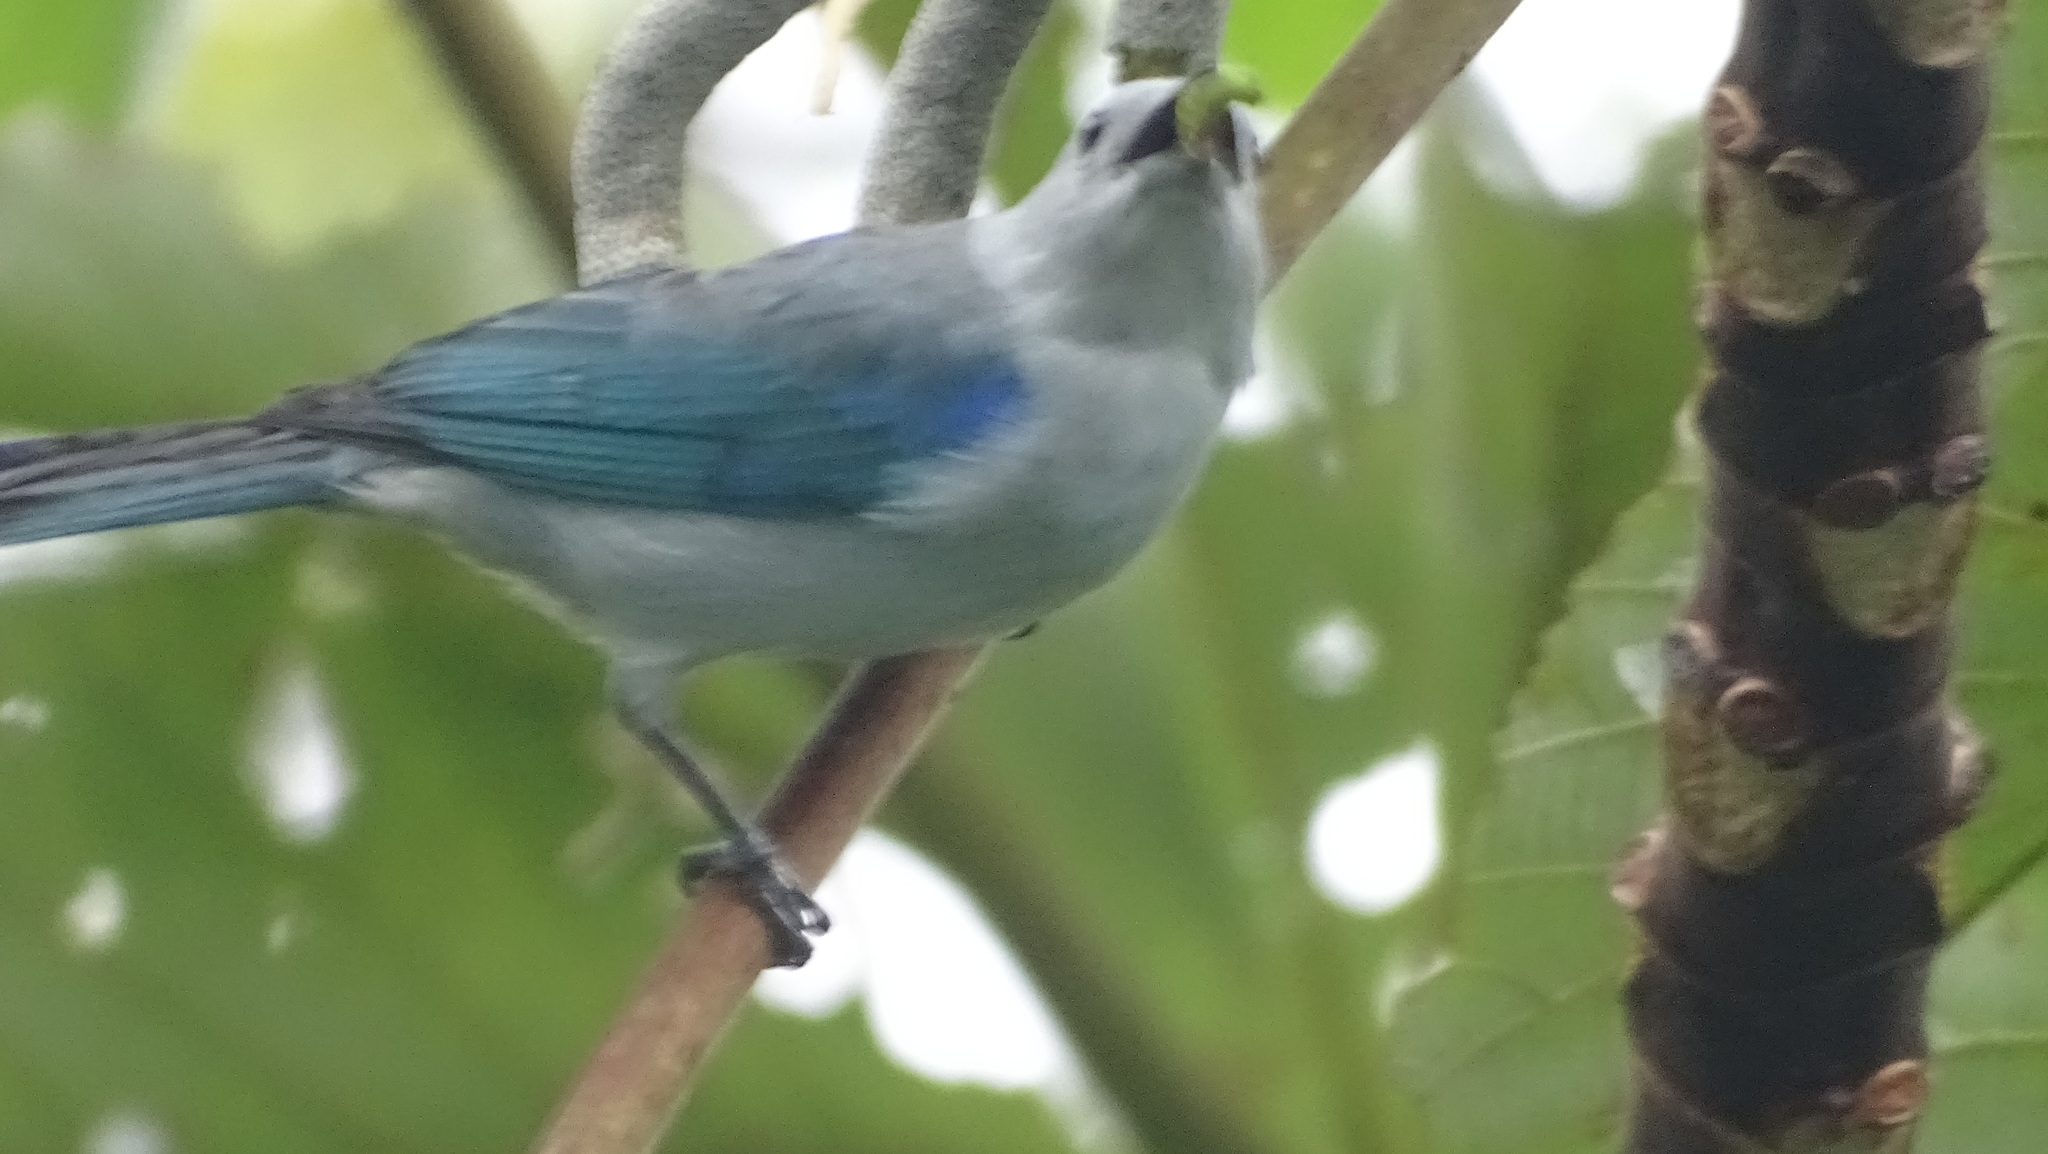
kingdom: Animalia
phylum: Chordata
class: Aves
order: Passeriformes
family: Thraupidae
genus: Thraupis
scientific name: Thraupis episcopus
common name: Blue-grey tanager
